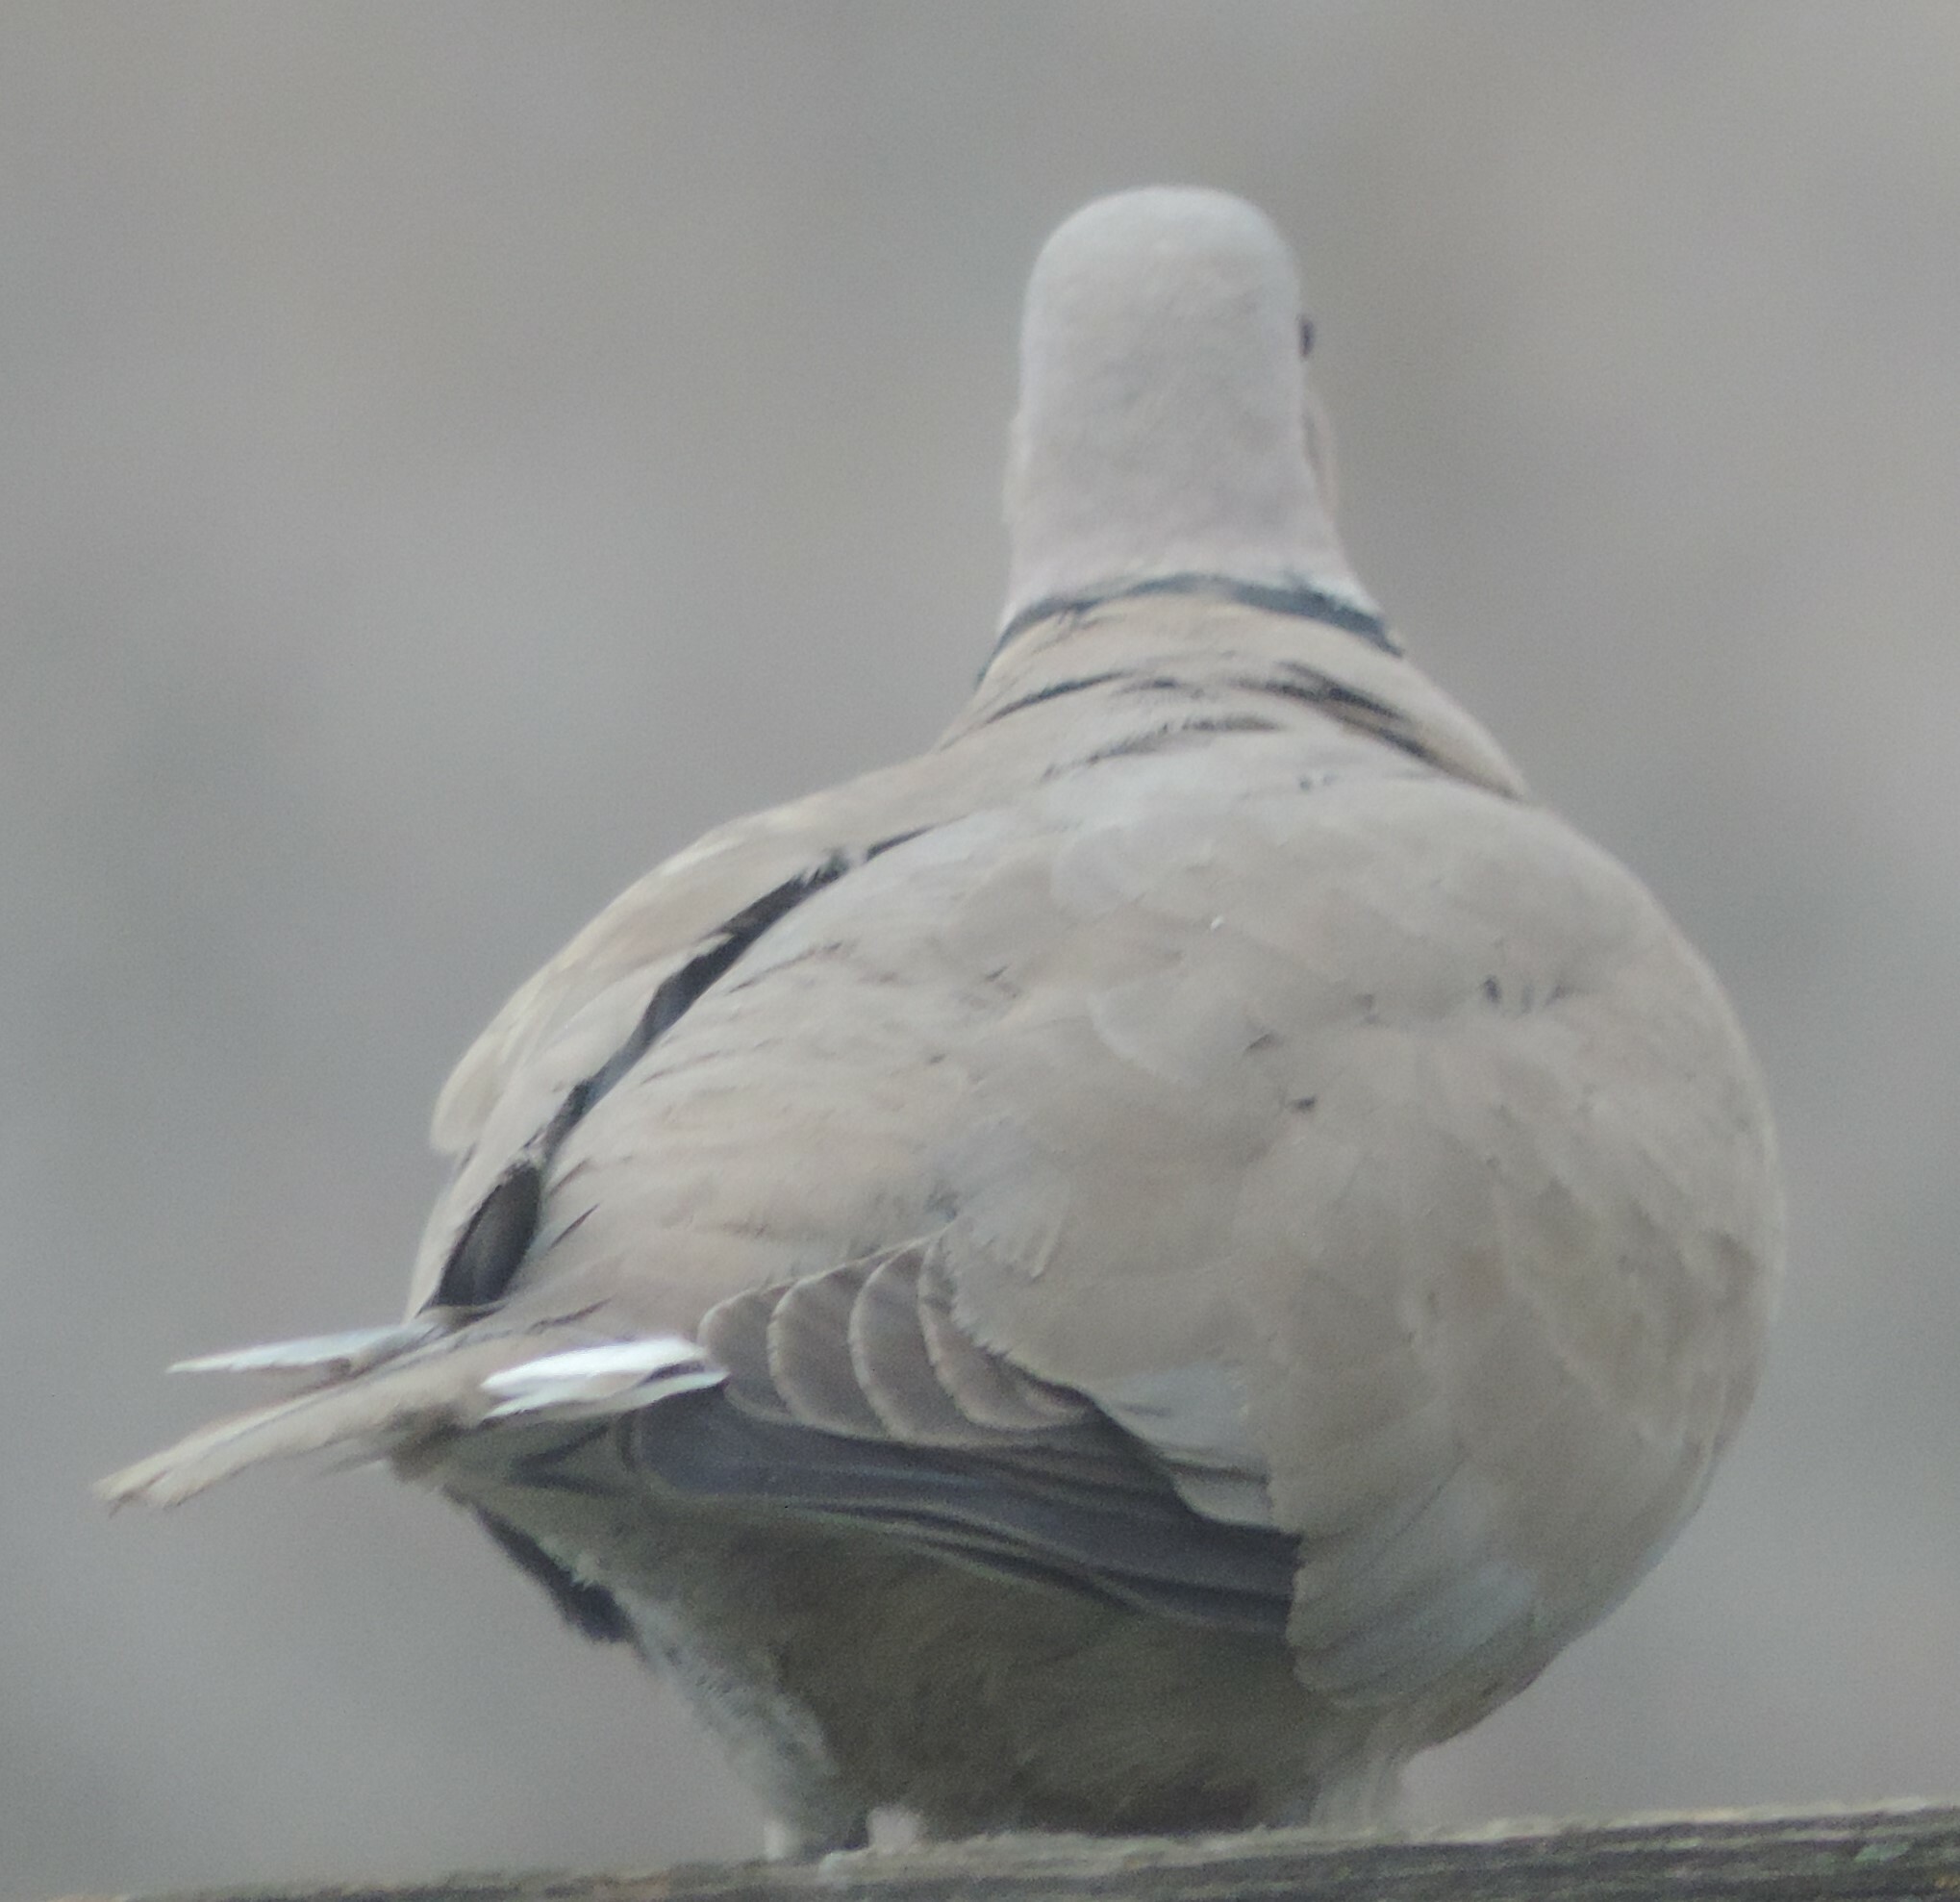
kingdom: Animalia
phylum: Chordata
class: Aves
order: Columbiformes
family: Columbidae
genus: Streptopelia
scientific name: Streptopelia decaocto
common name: Eurasian collared dove
